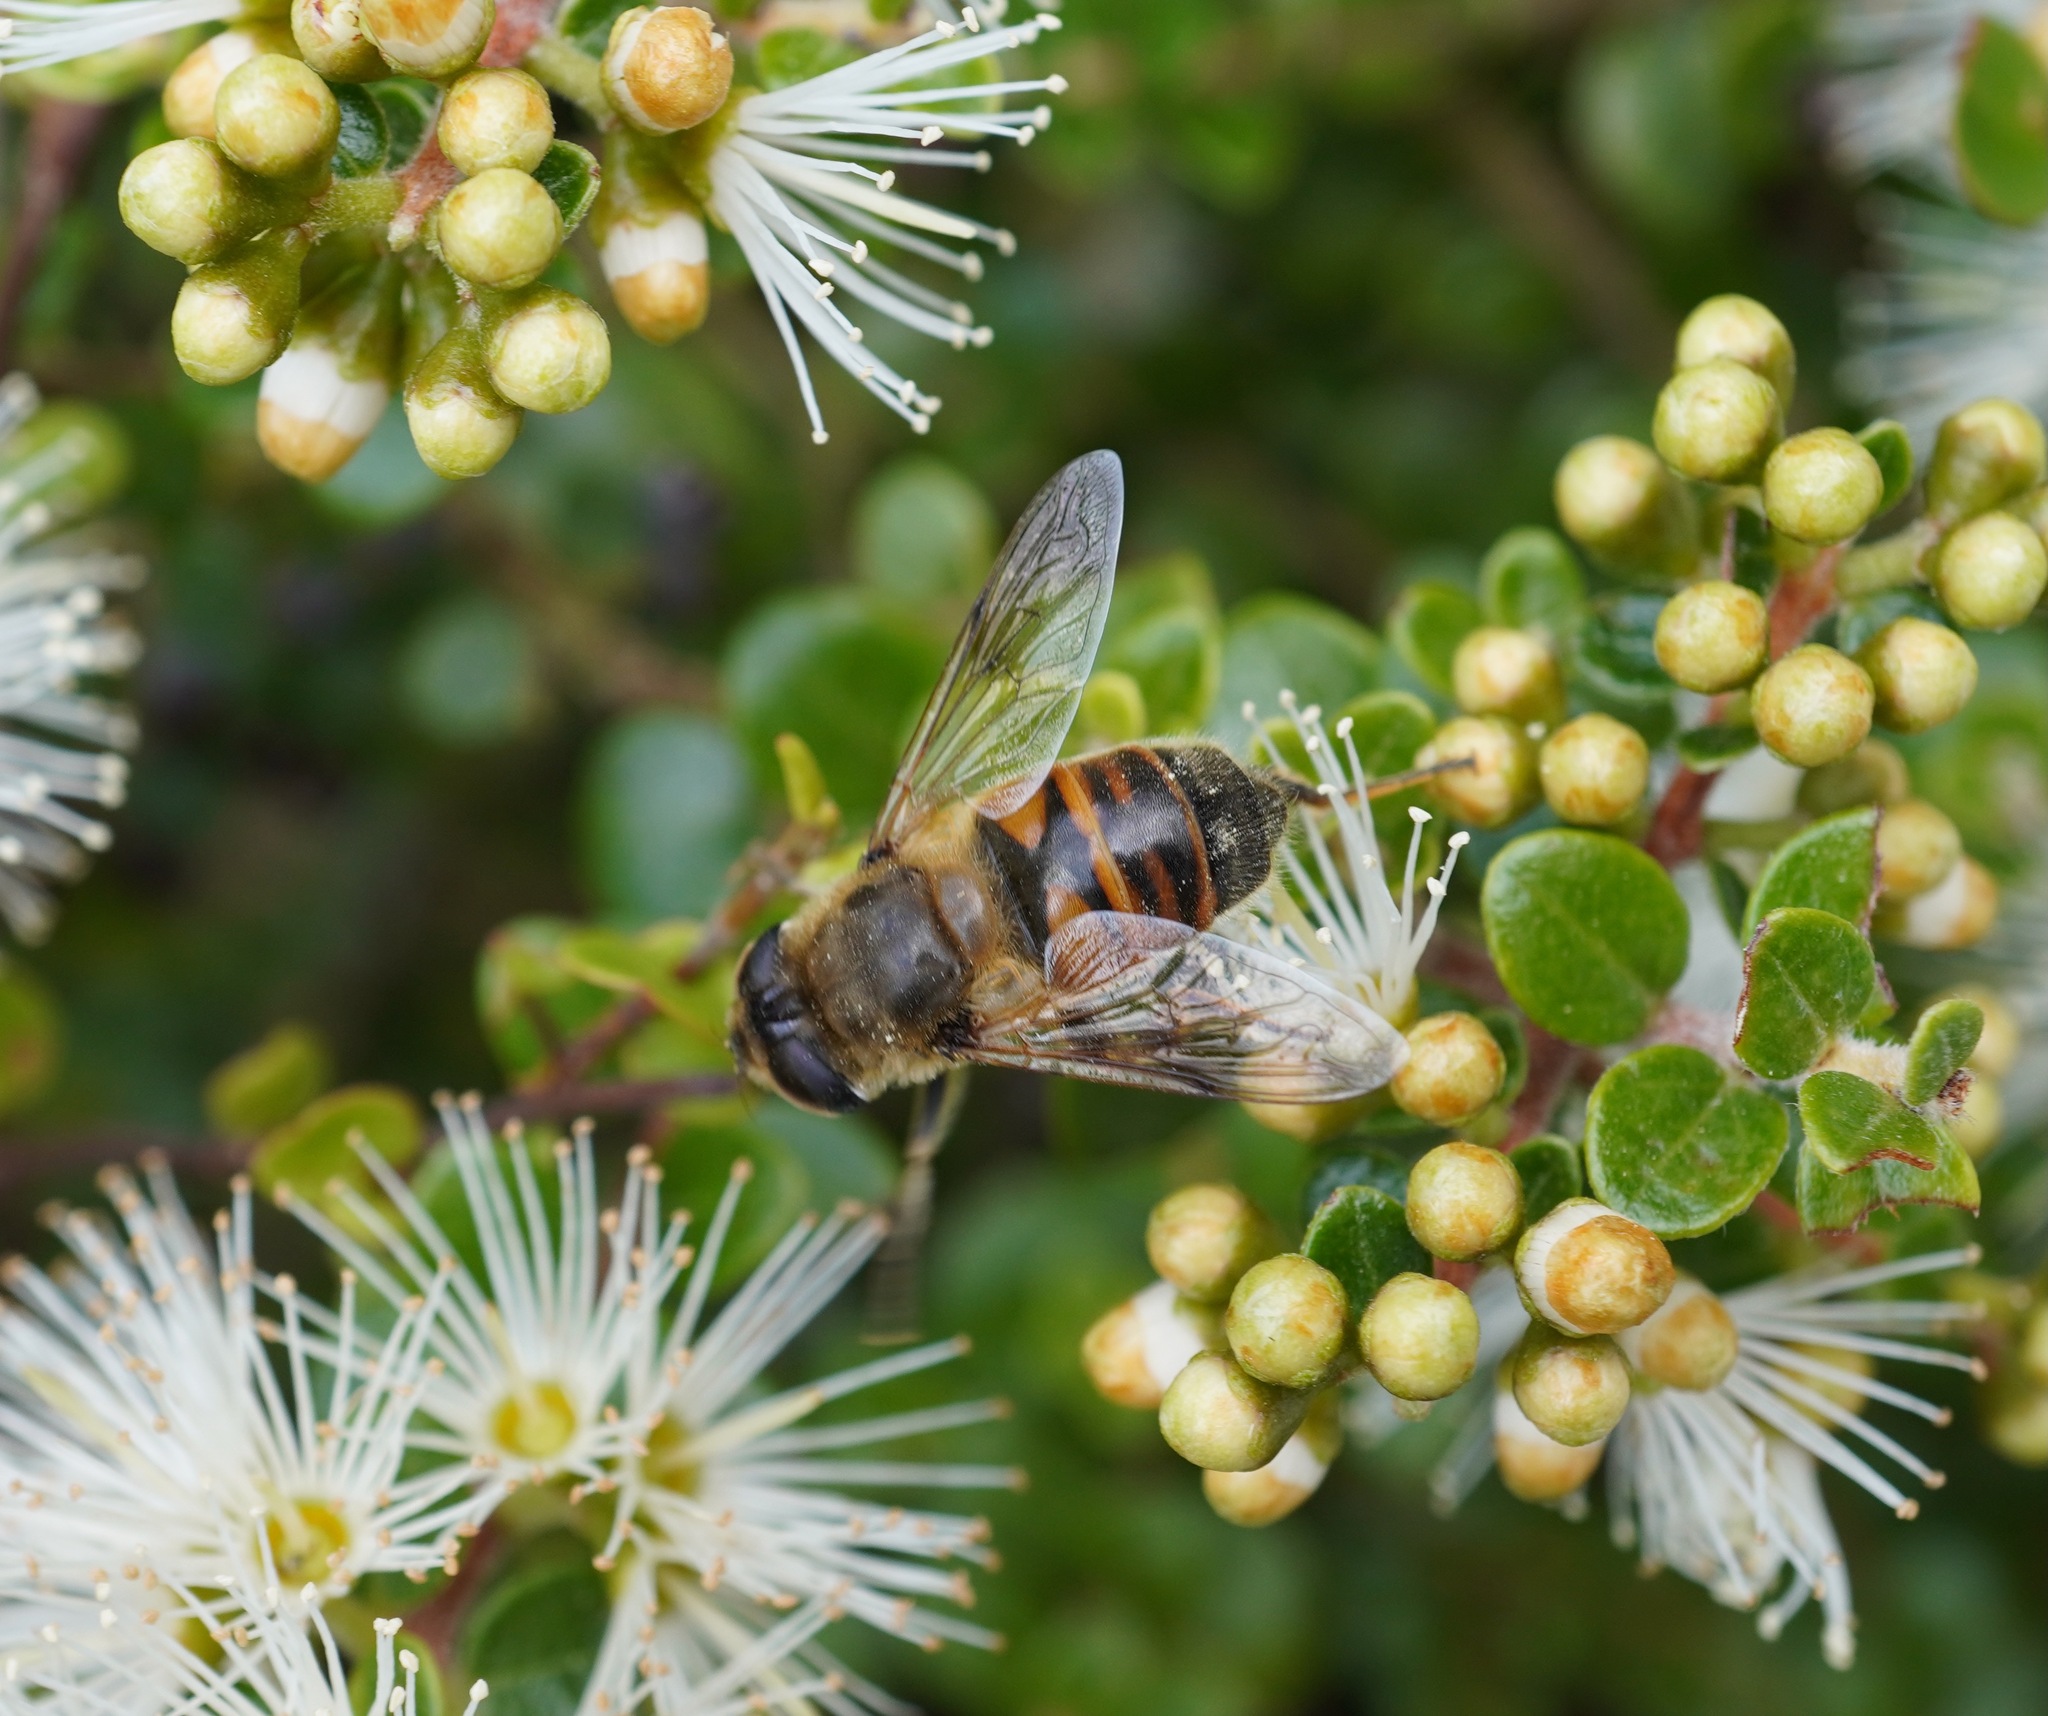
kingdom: Animalia
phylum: Arthropoda
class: Insecta
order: Diptera
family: Syrphidae
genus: Eristalis
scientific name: Eristalis tenax
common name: Drone fly
